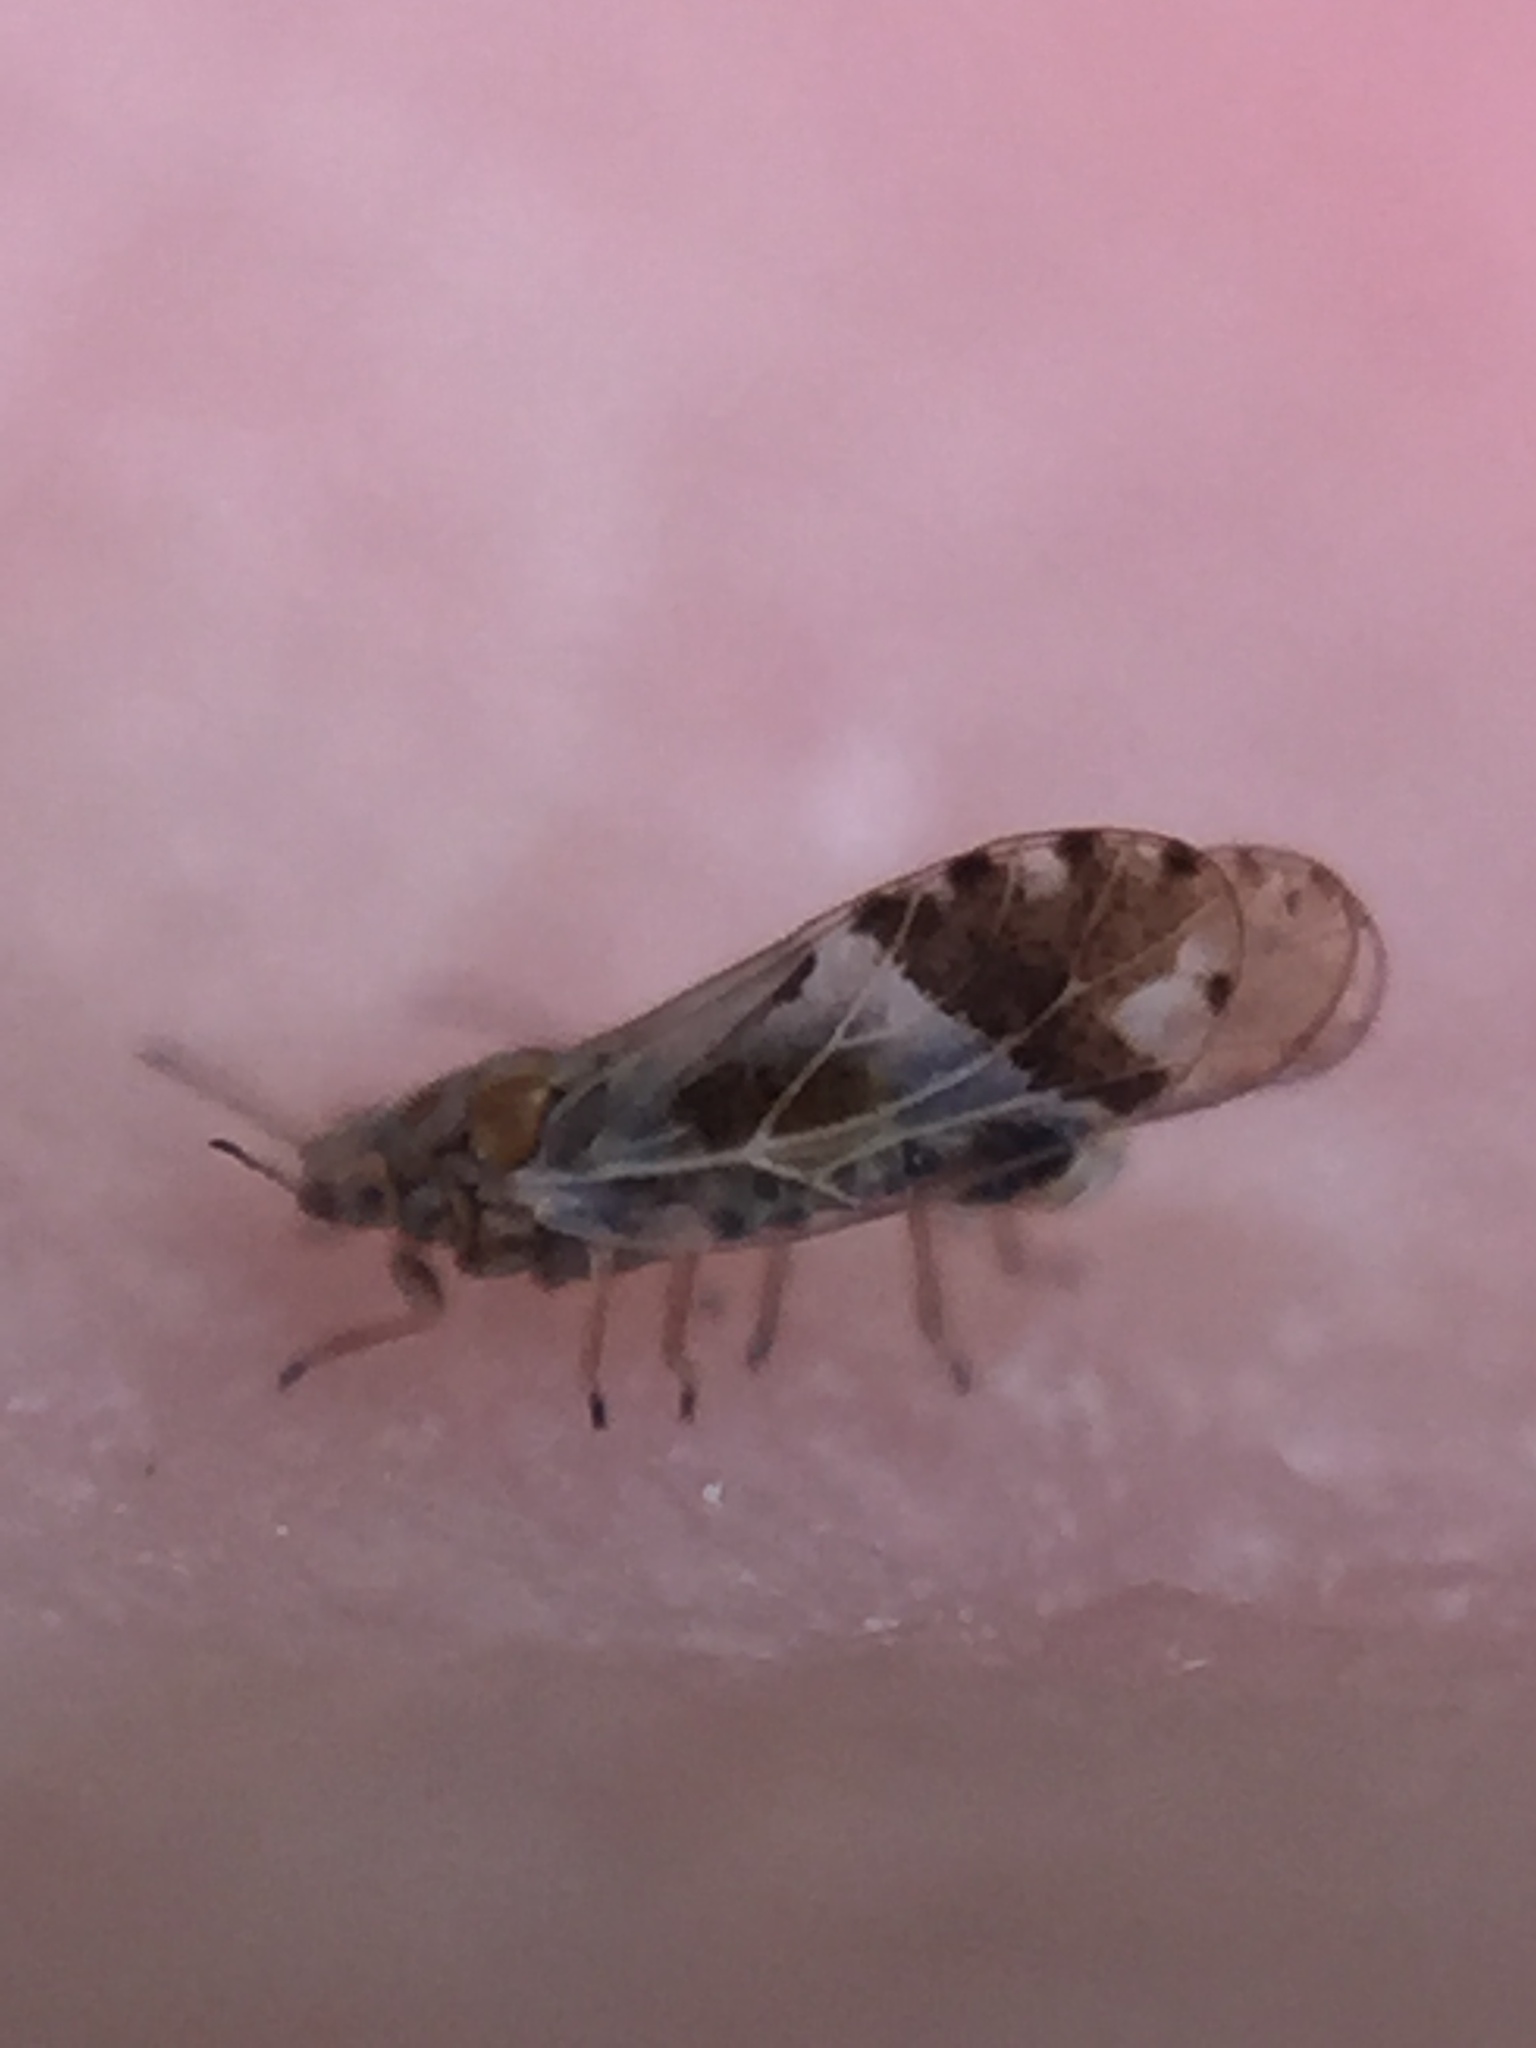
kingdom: Animalia
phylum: Arthropoda
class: Insecta
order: Hemiptera
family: Triozidae
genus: Casuarinicola
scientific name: Casuarinicola nigrimaculatus
